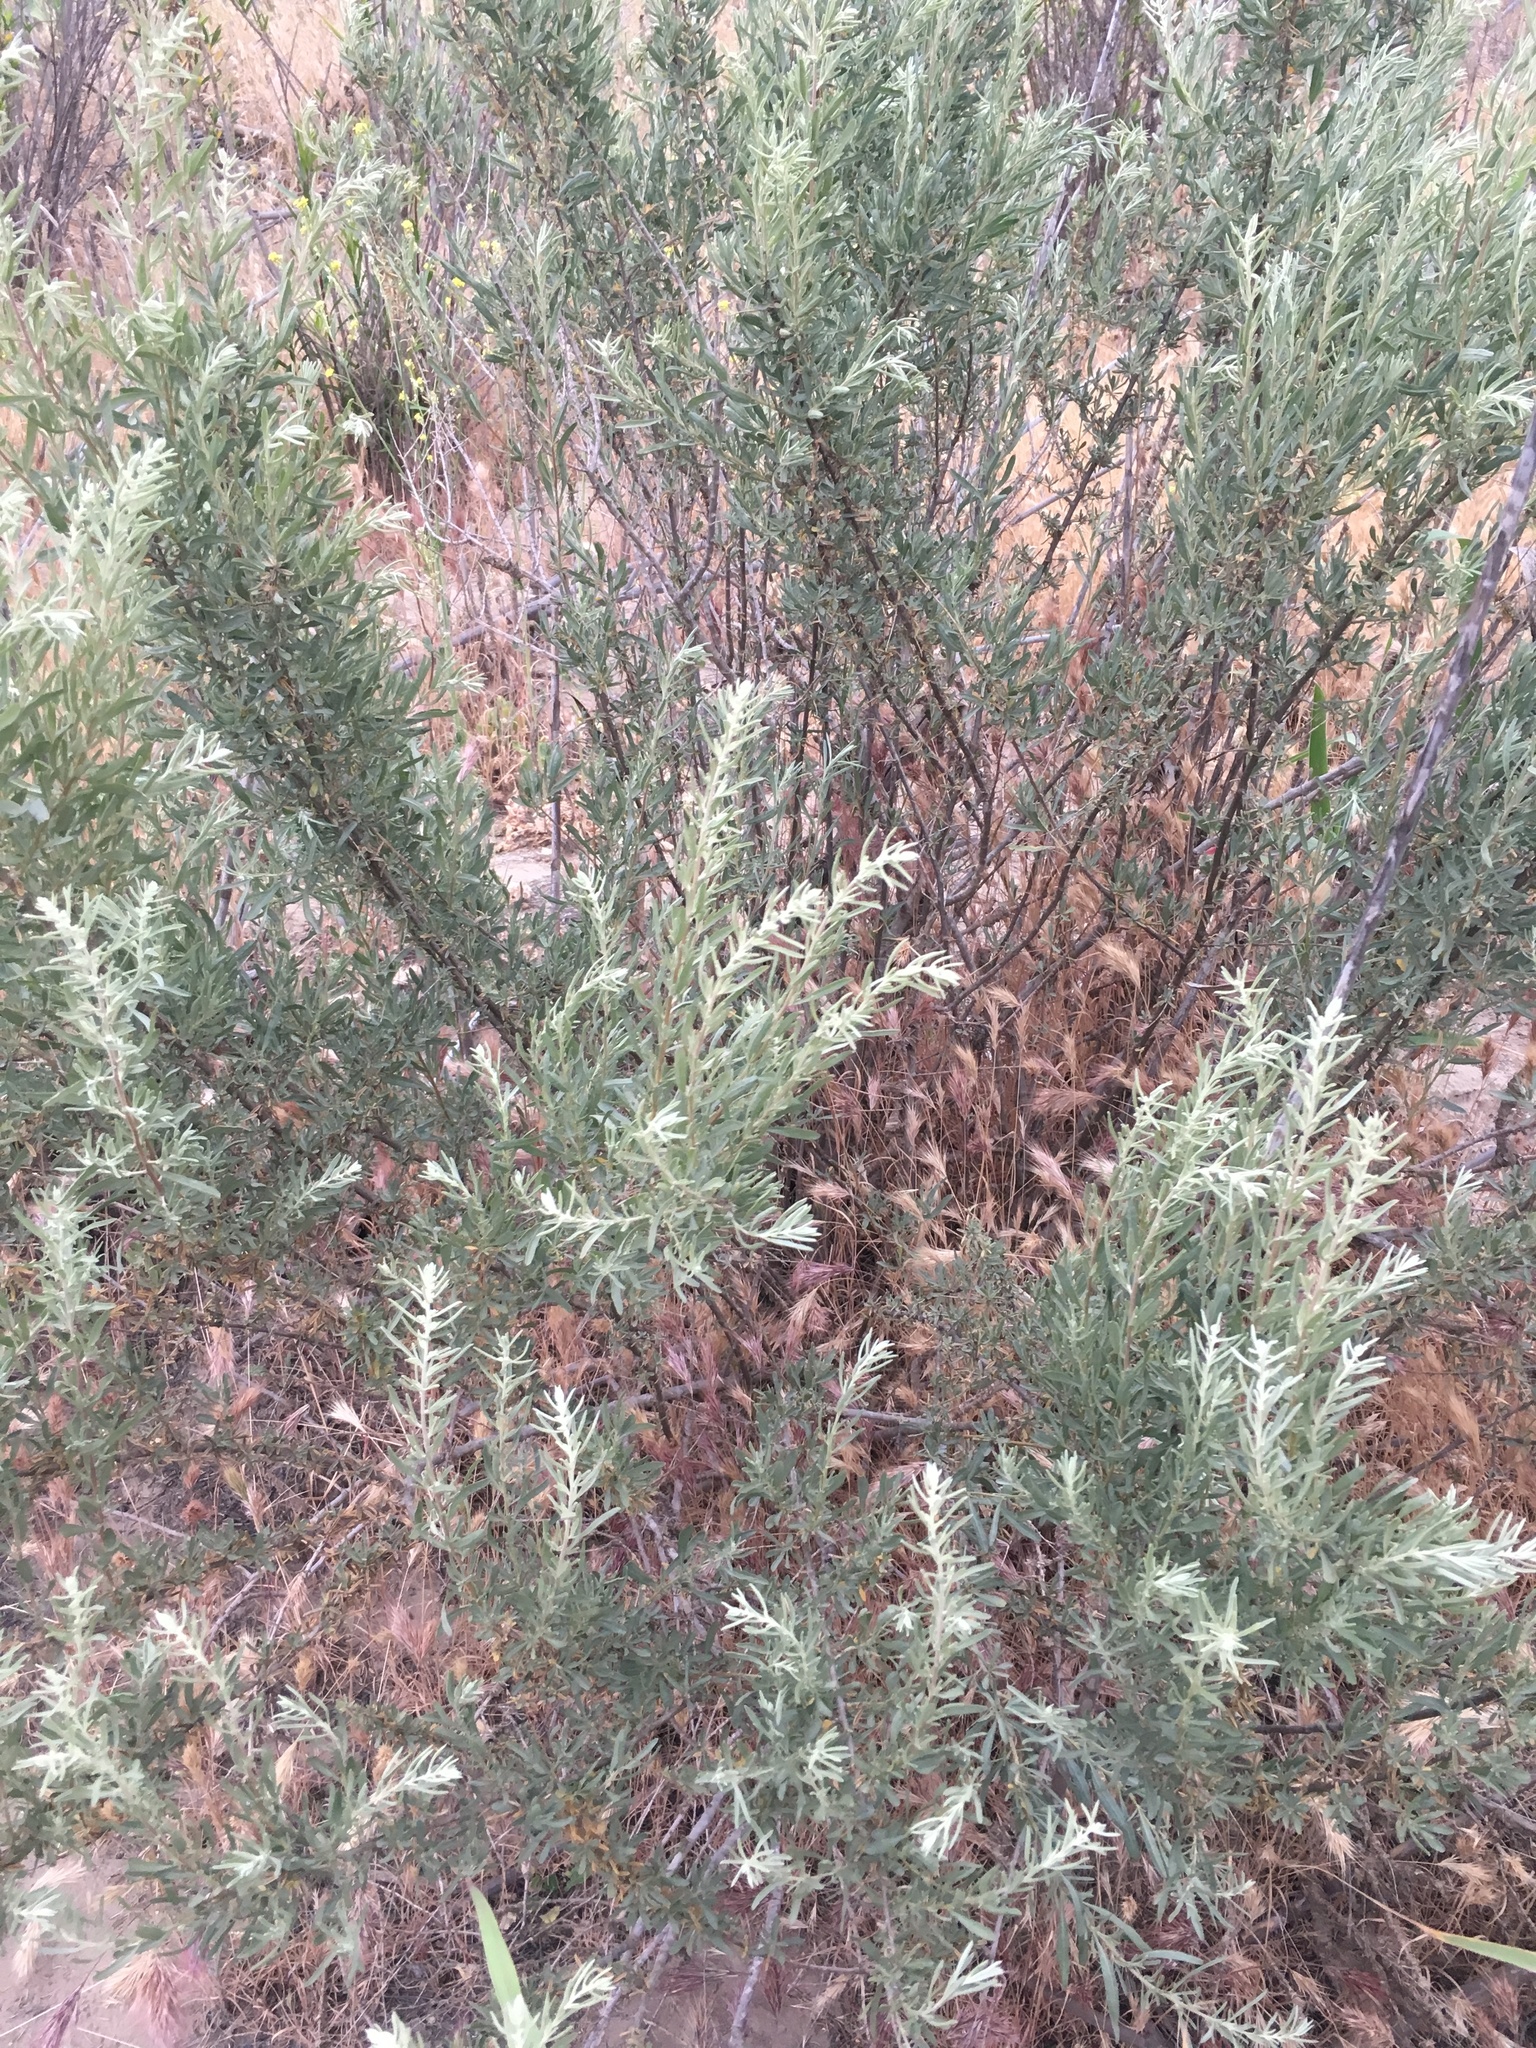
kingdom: Plantae
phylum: Tracheophyta
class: Magnoliopsida
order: Caryophyllales
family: Amaranthaceae
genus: Atriplex
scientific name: Atriplex canescens
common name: Four-wing saltbush
